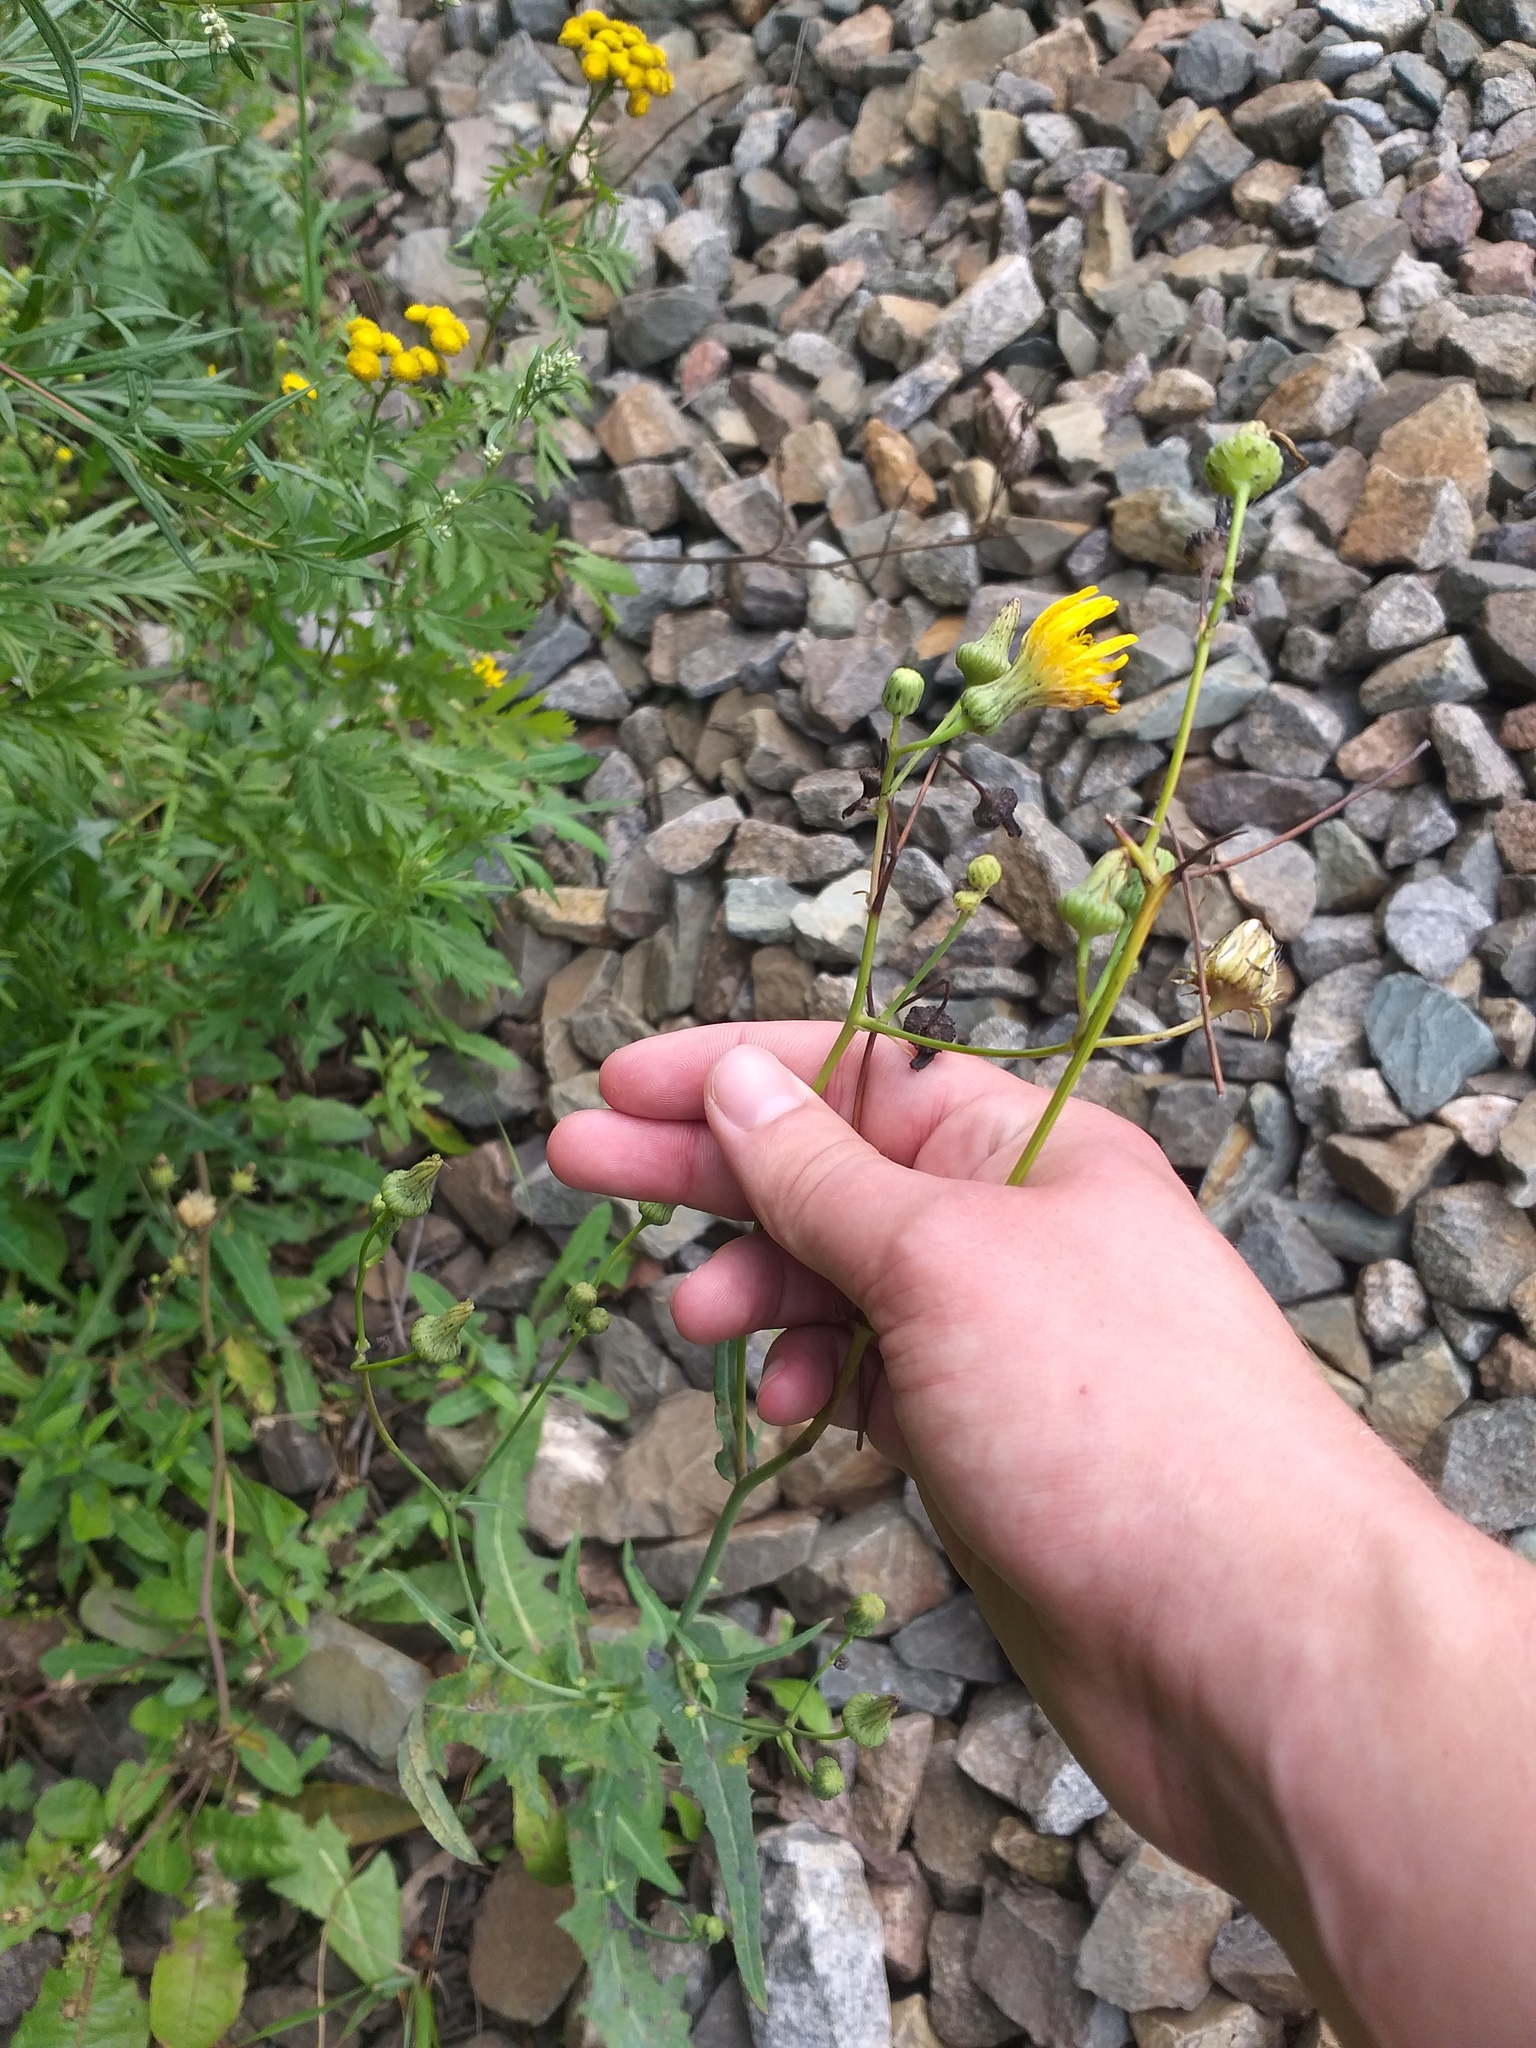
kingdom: Plantae
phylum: Tracheophyta
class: Magnoliopsida
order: Asterales
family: Asteraceae
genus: Sonchus
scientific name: Sonchus arvensis
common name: Perennial sow-thistle
